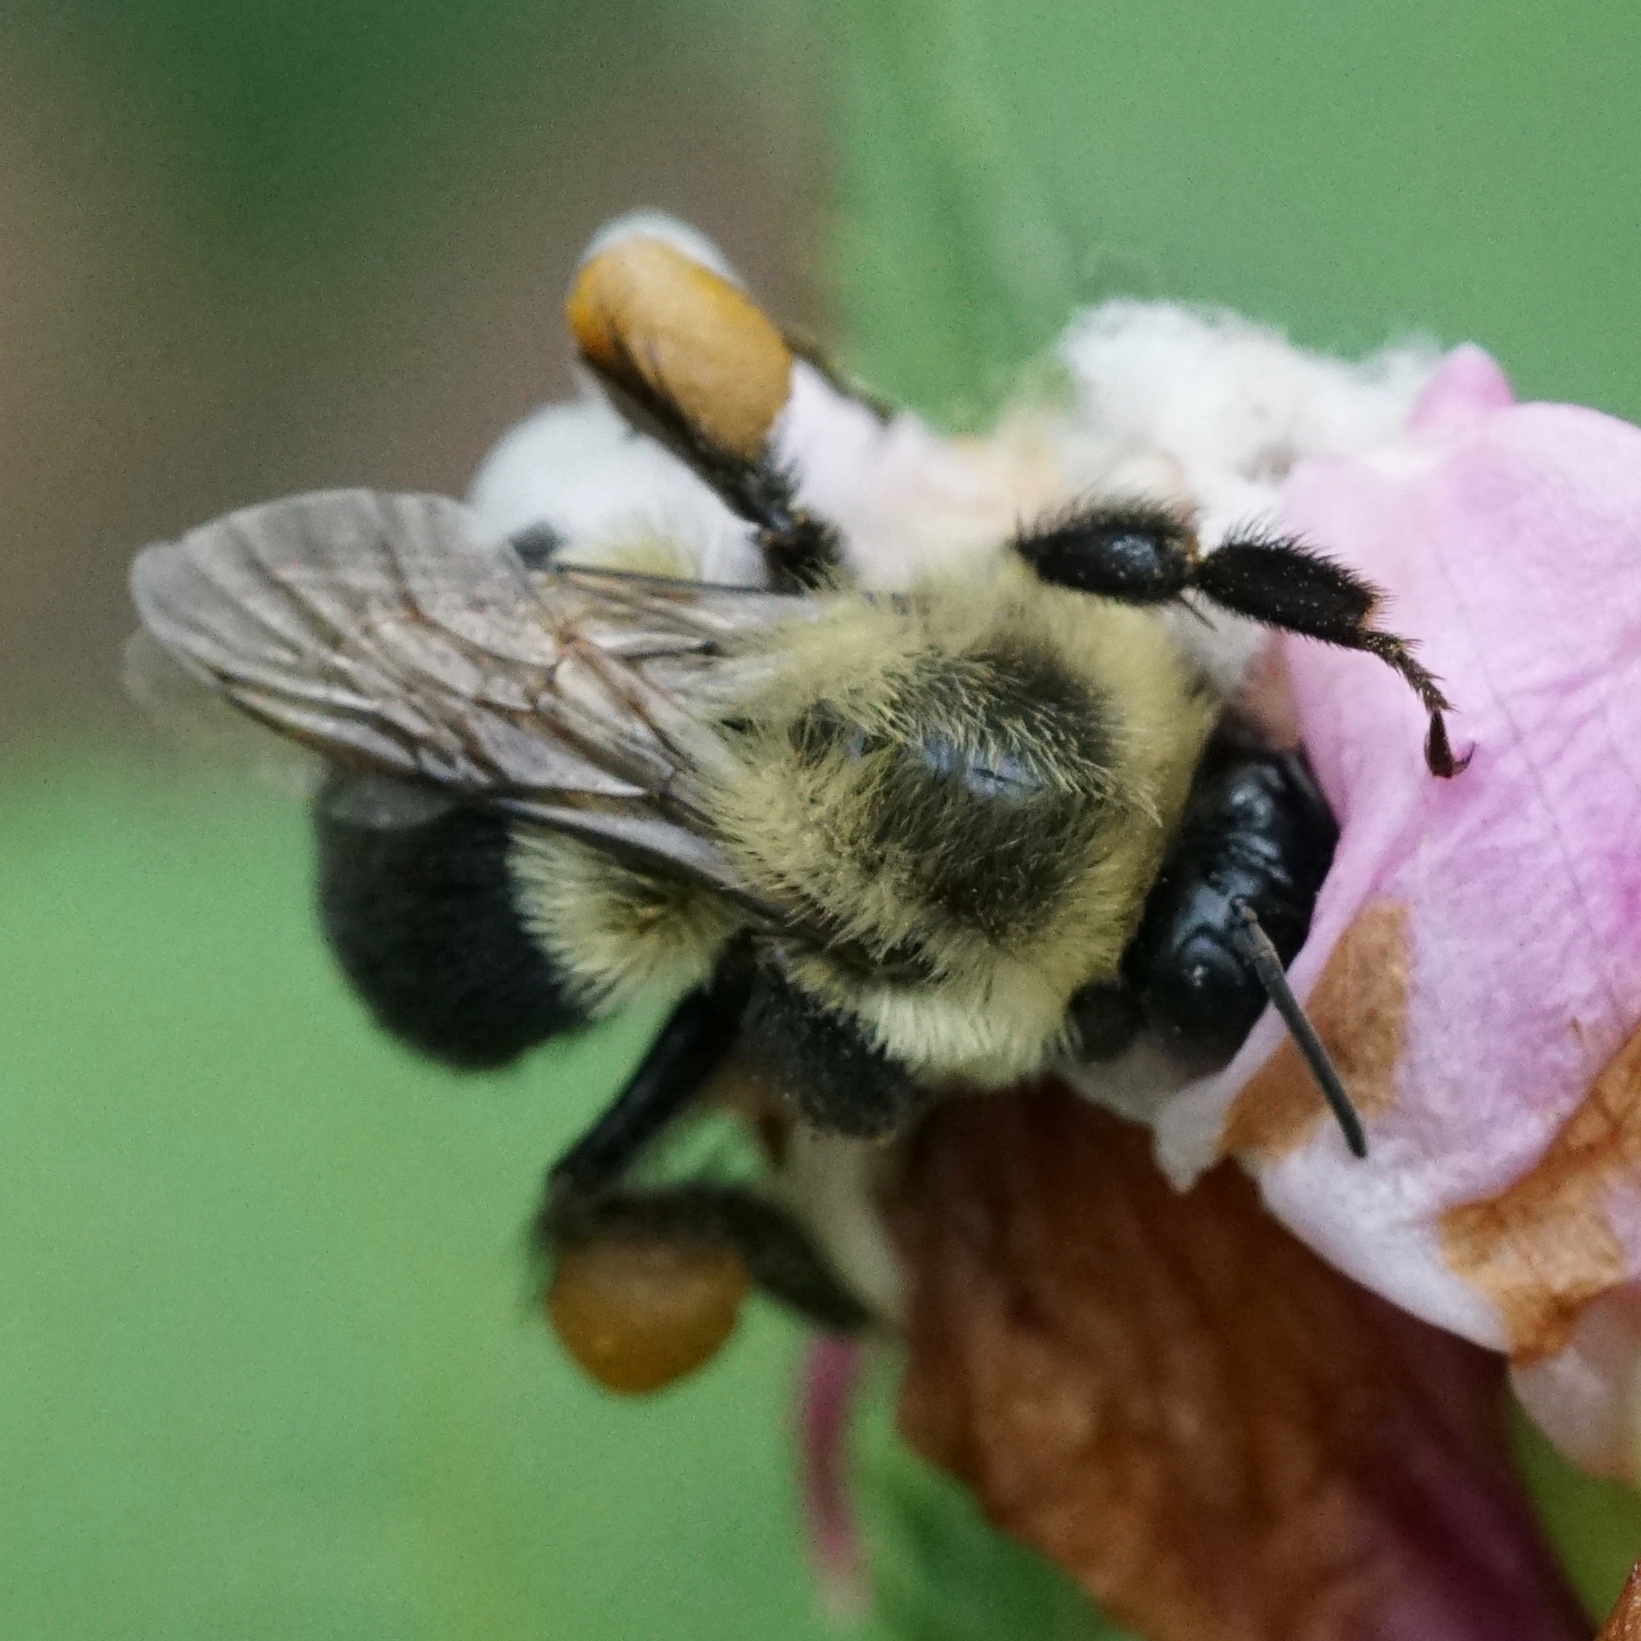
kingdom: Animalia
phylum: Arthropoda
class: Insecta
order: Hymenoptera
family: Apidae
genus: Bombus
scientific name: Bombus impatiens
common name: Common eastern bumble bee
